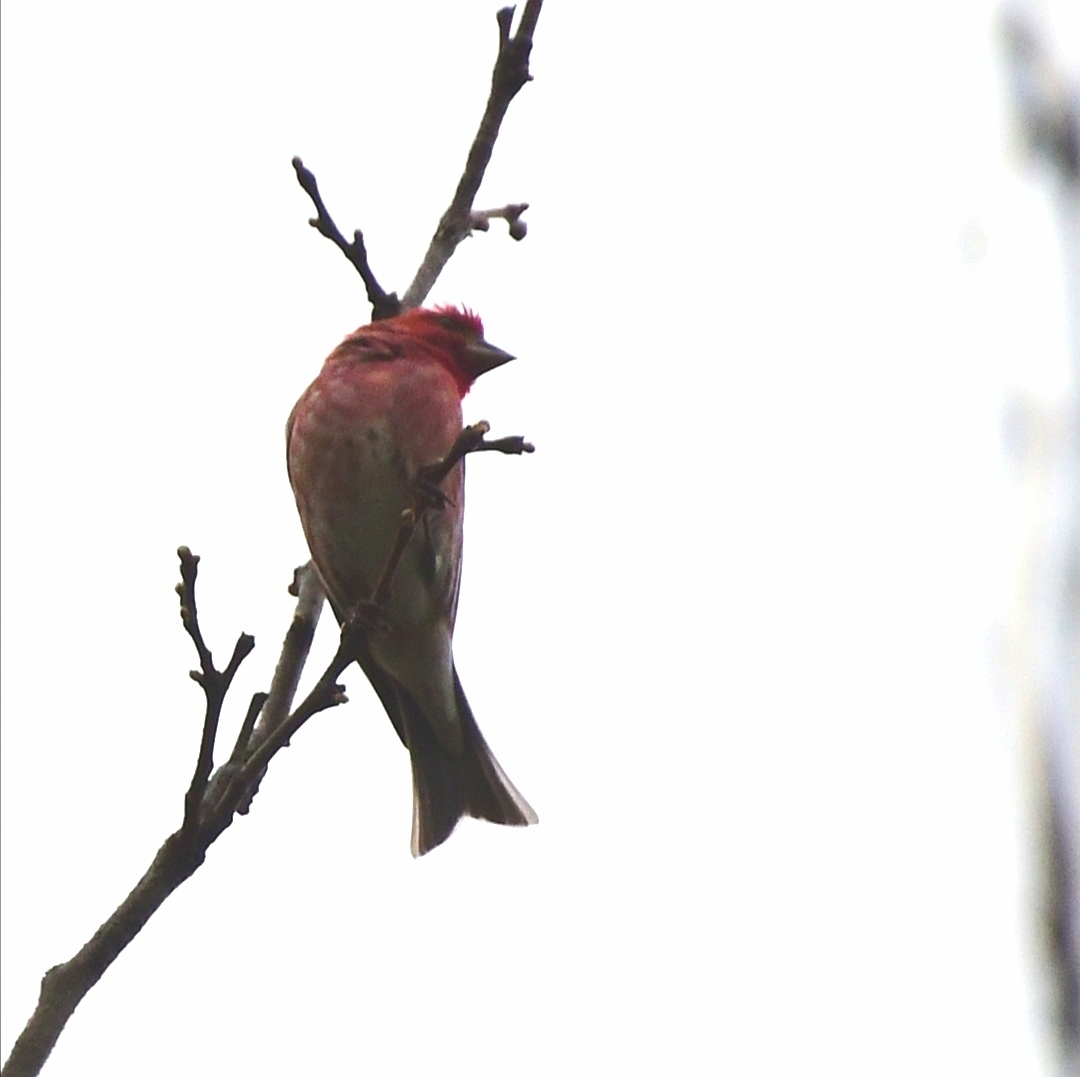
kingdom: Animalia
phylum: Chordata
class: Aves
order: Passeriformes
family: Fringillidae
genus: Haemorhous
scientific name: Haemorhous purpureus
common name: Purple finch
